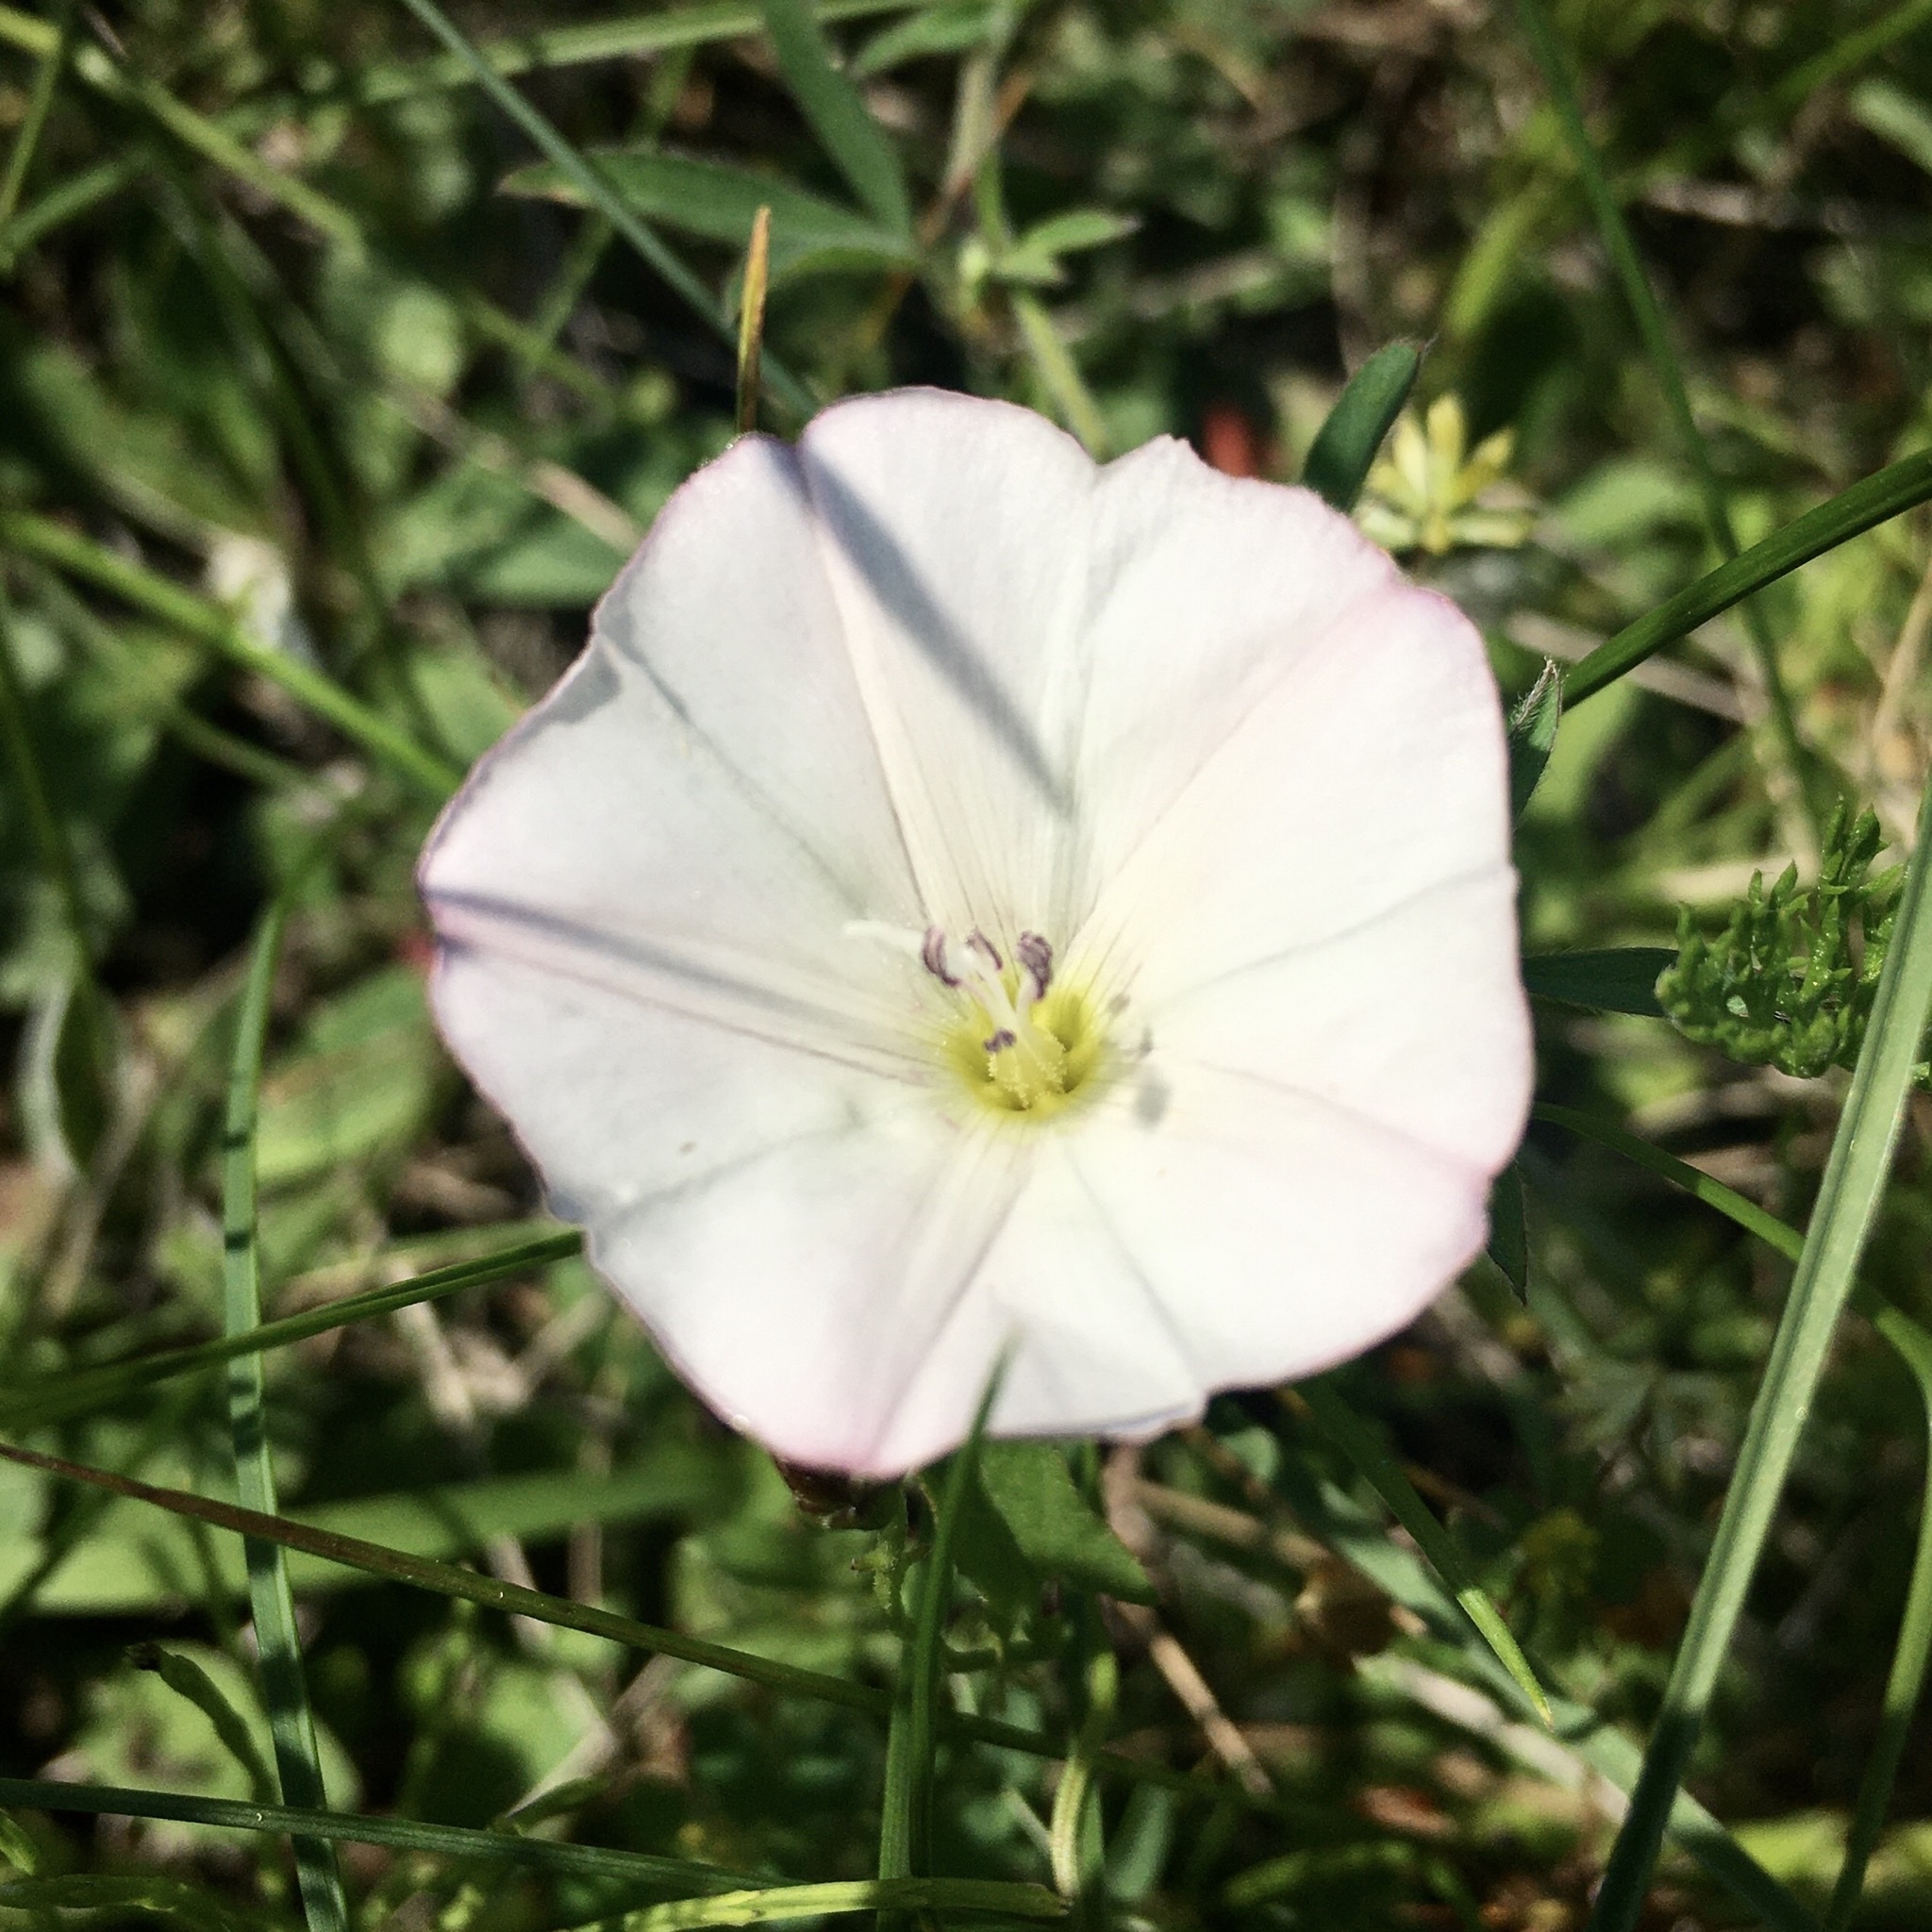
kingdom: Plantae
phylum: Tracheophyta
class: Magnoliopsida
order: Solanales
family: Convolvulaceae
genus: Convolvulus
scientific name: Convolvulus arvensis
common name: Field bindweed
